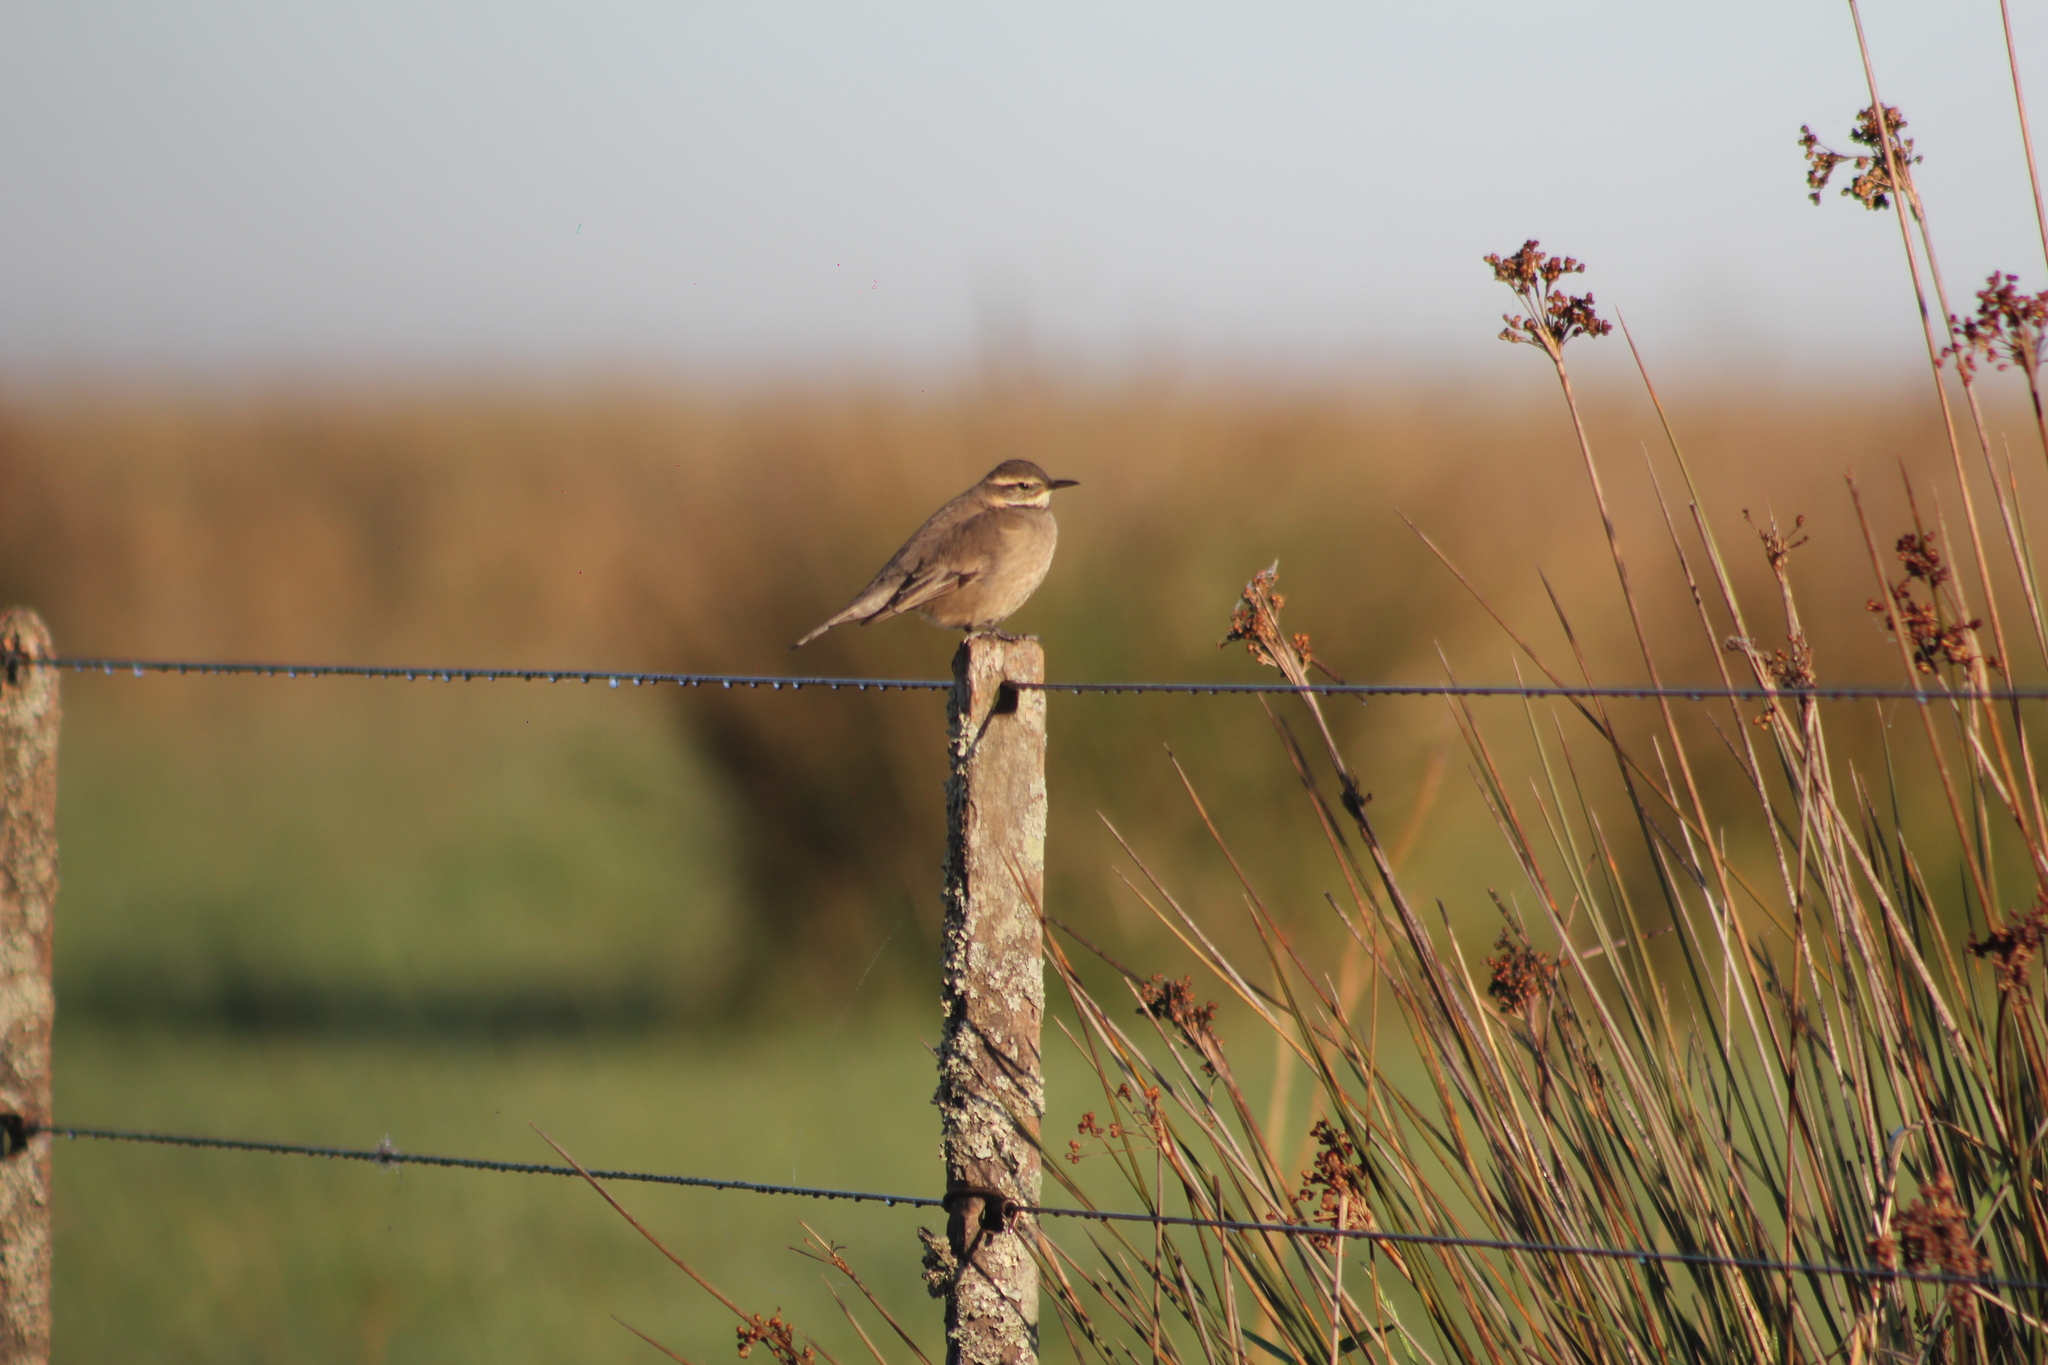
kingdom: Animalia
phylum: Chordata
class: Aves
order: Passeriformes
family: Furnariidae
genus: Cinclodes
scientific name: Cinclodes fuscus
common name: Buff-winged cinclodes
